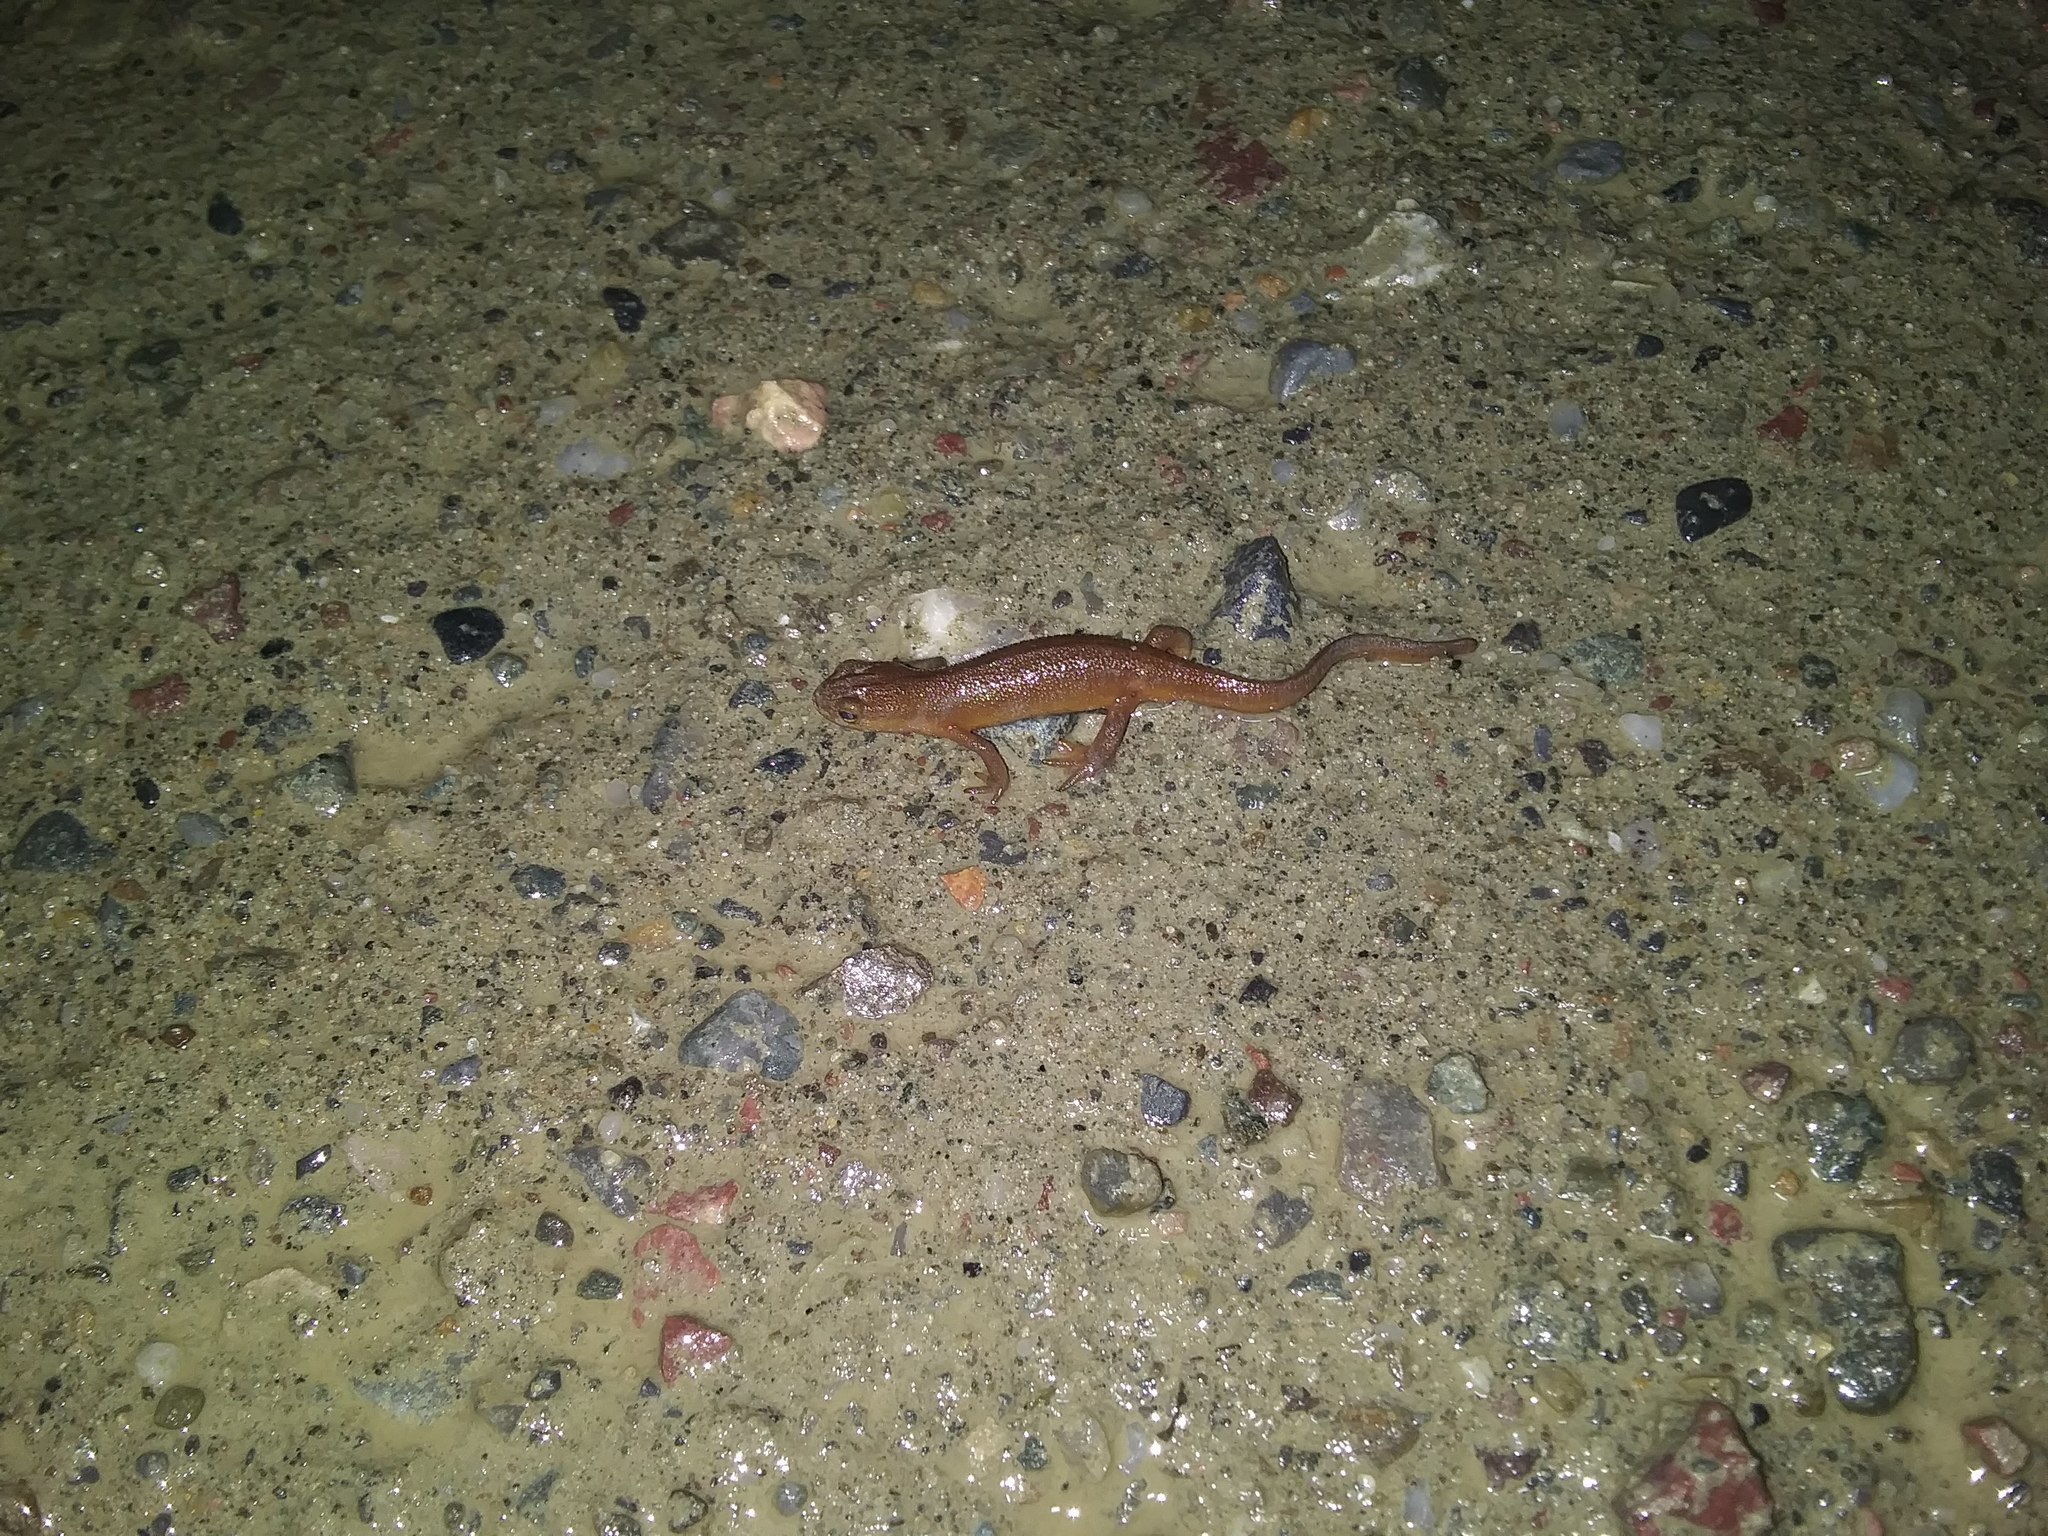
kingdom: Animalia
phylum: Chordata
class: Amphibia
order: Caudata
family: Salamandridae
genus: Notophthalmus
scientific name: Notophthalmus viridescens
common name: Eastern newt
